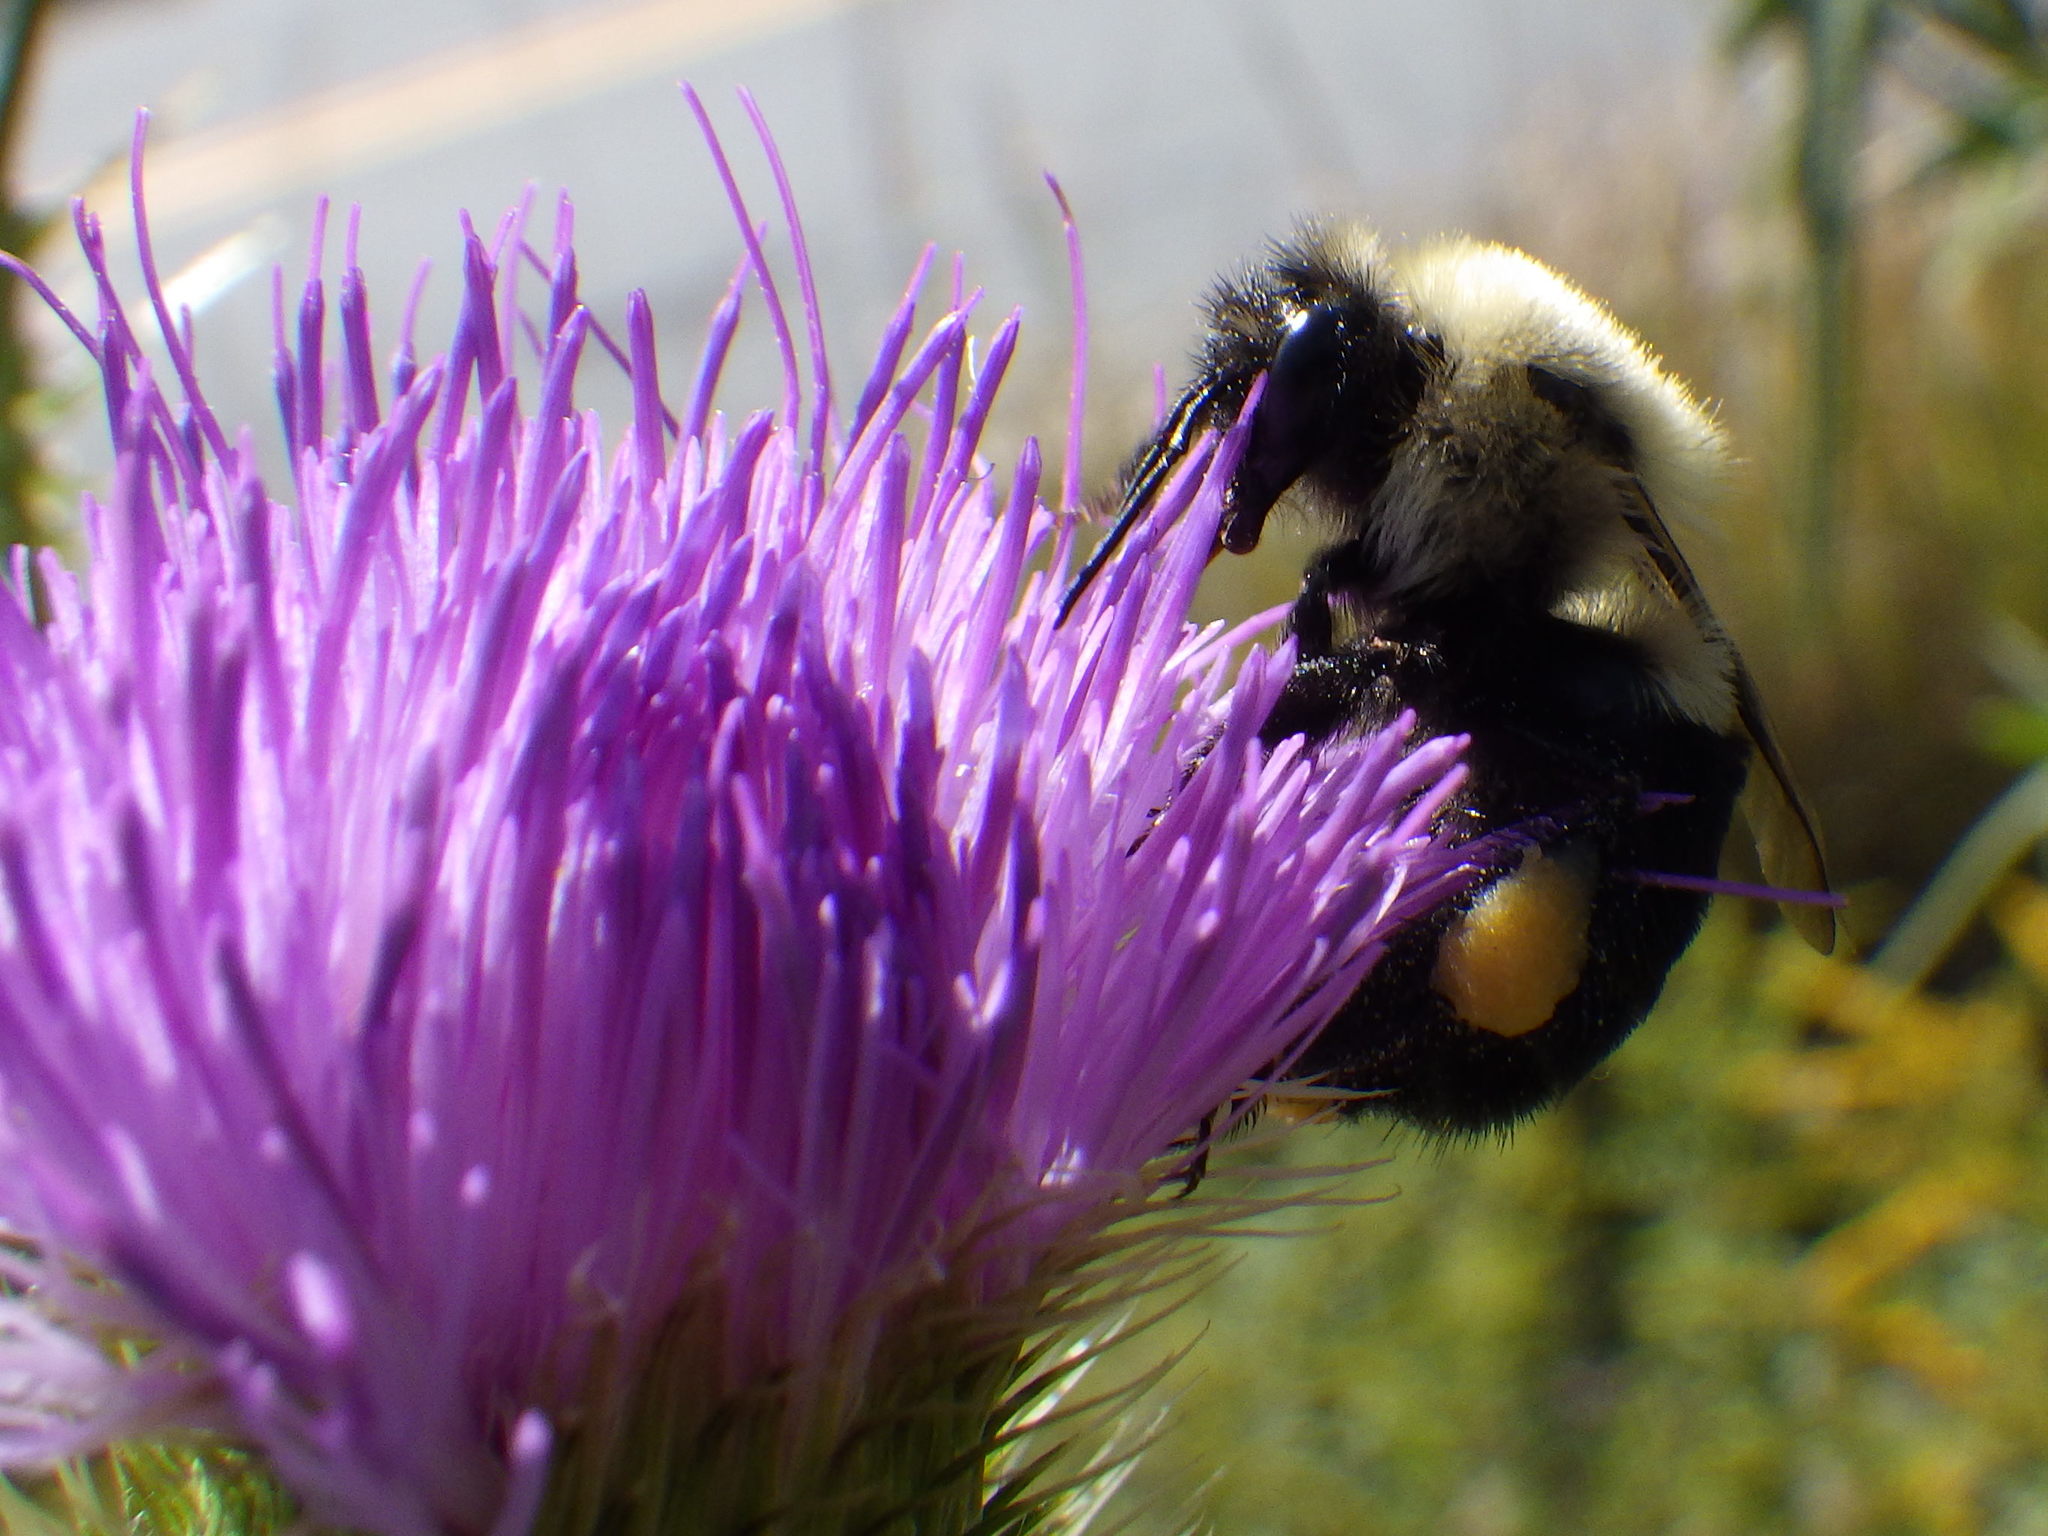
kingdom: Animalia
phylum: Arthropoda
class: Insecta
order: Hymenoptera
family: Apidae
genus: Bombus
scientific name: Bombus impatiens
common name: Common eastern bumble bee
